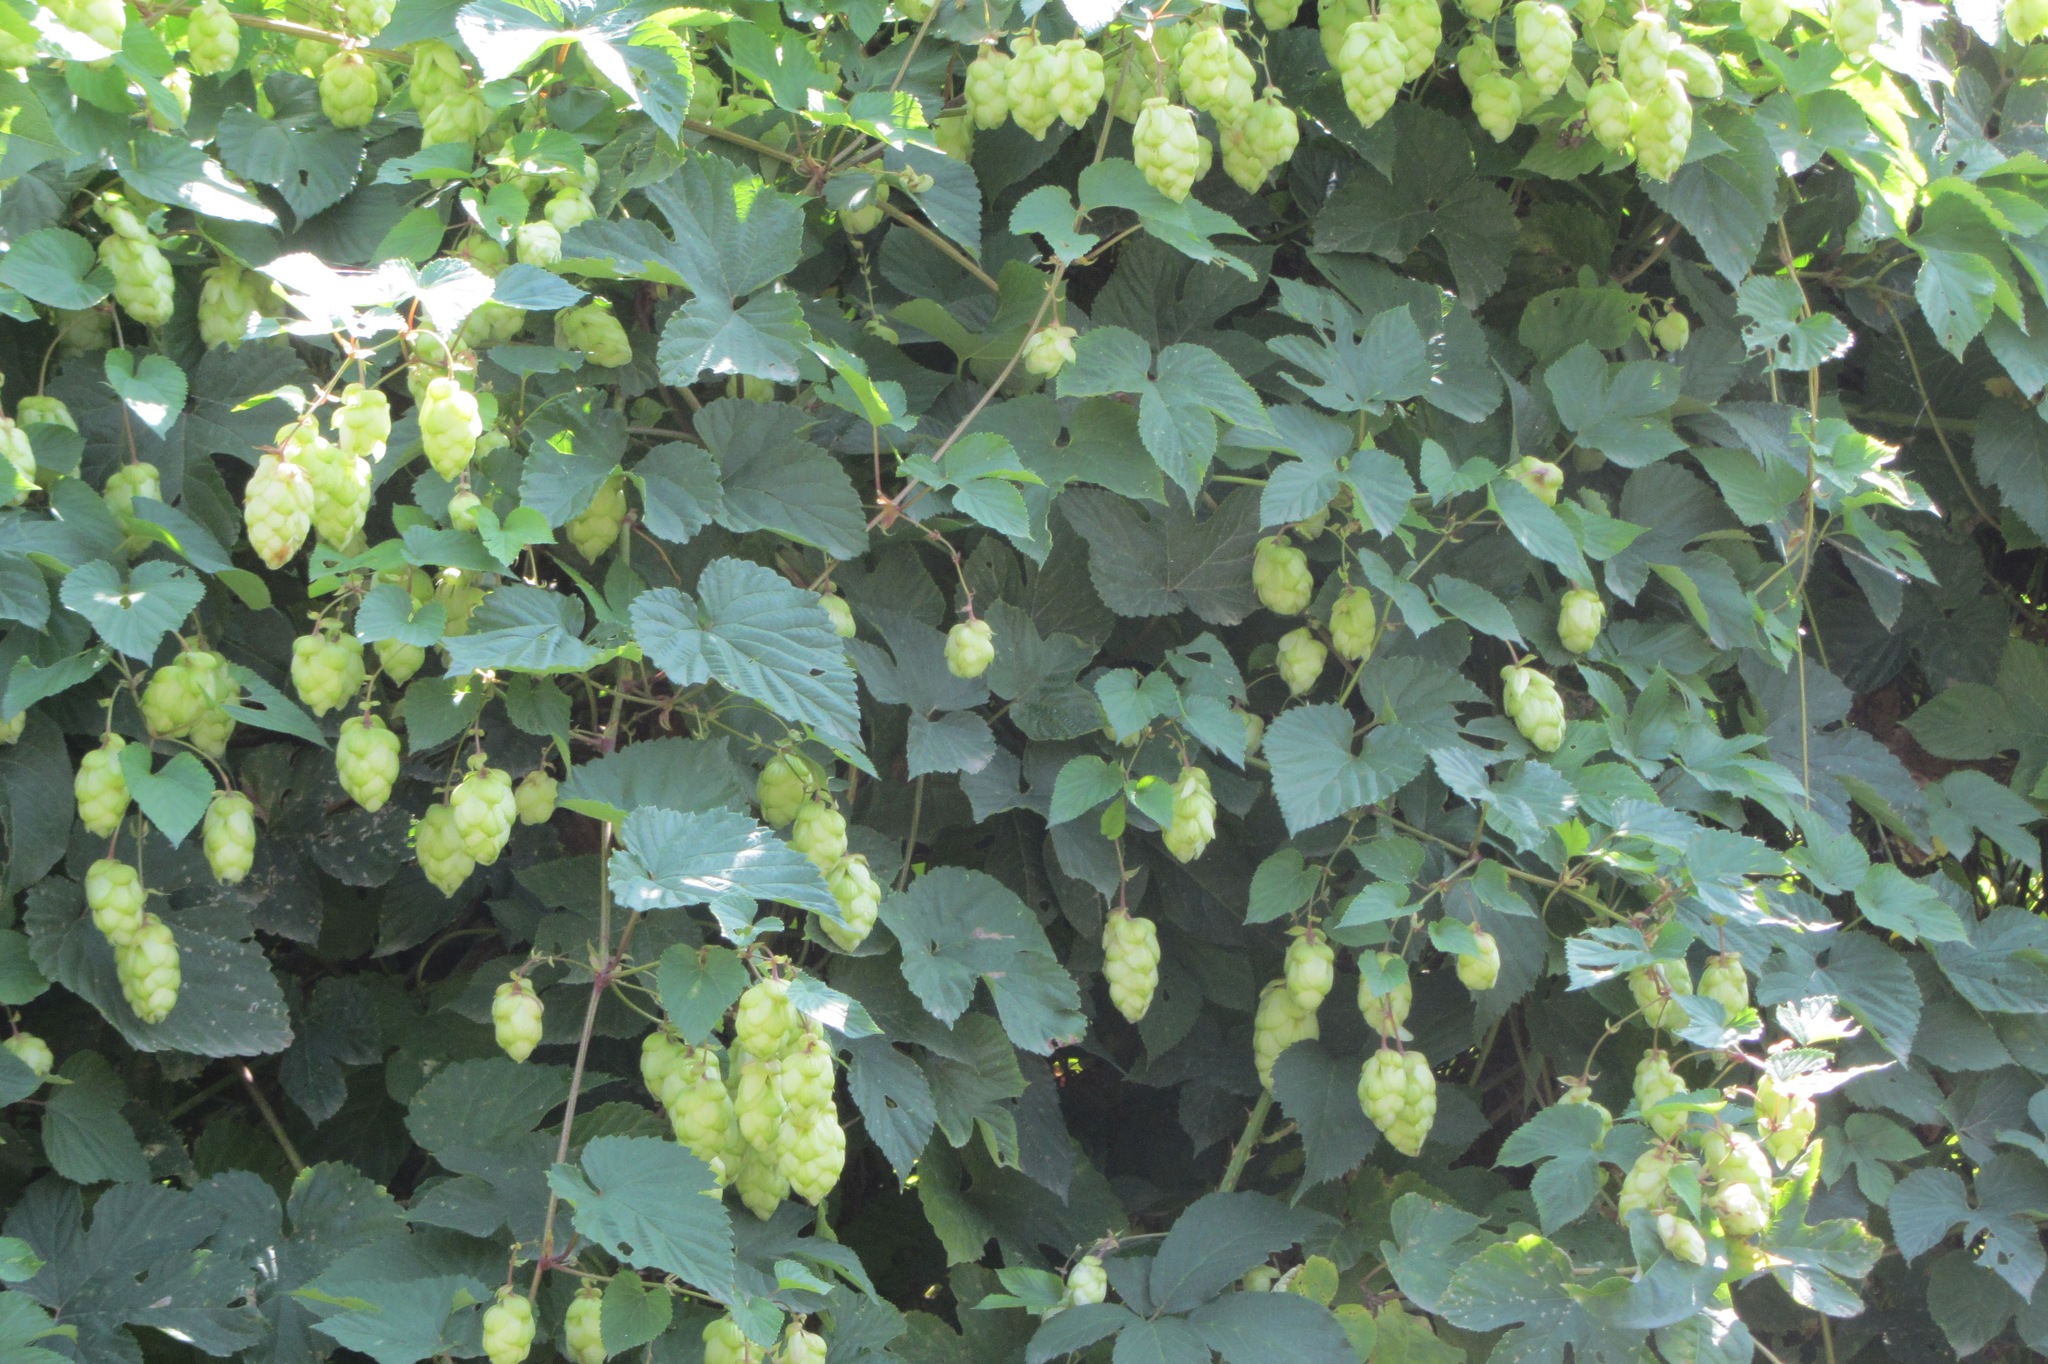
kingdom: Plantae
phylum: Tracheophyta
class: Magnoliopsida
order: Rosales
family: Cannabaceae
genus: Humulus
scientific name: Humulus lupulus
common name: Hop
